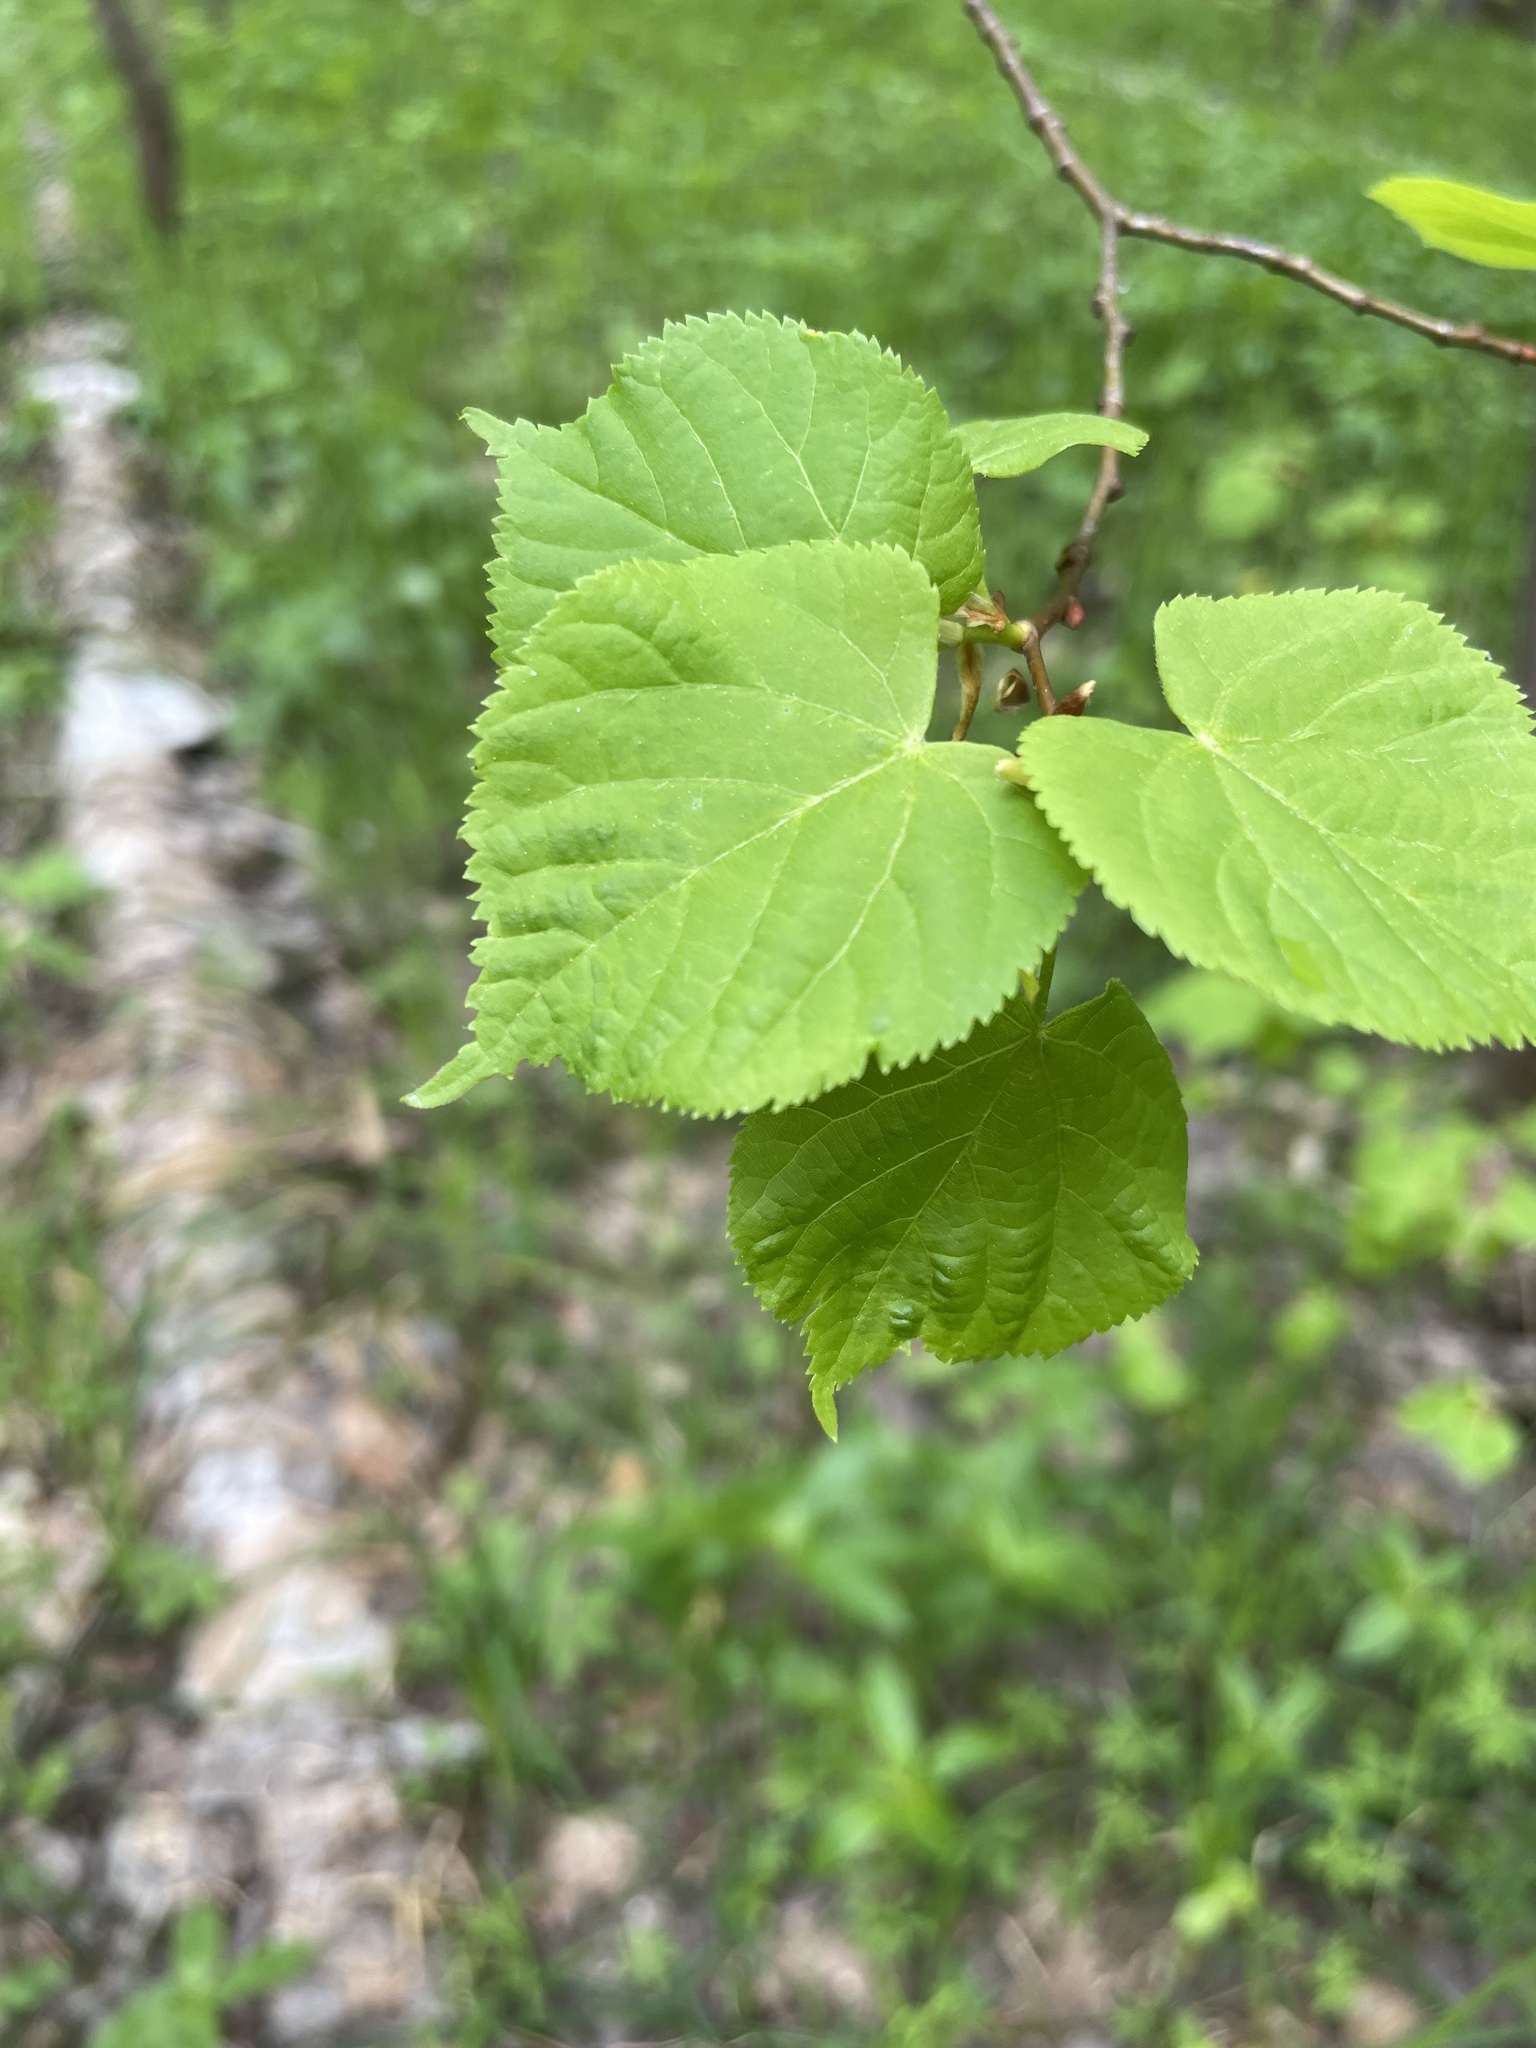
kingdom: Plantae
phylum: Tracheophyta
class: Magnoliopsida
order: Malvales
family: Malvaceae
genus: Tilia
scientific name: Tilia cordata
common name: Small-leaved lime
